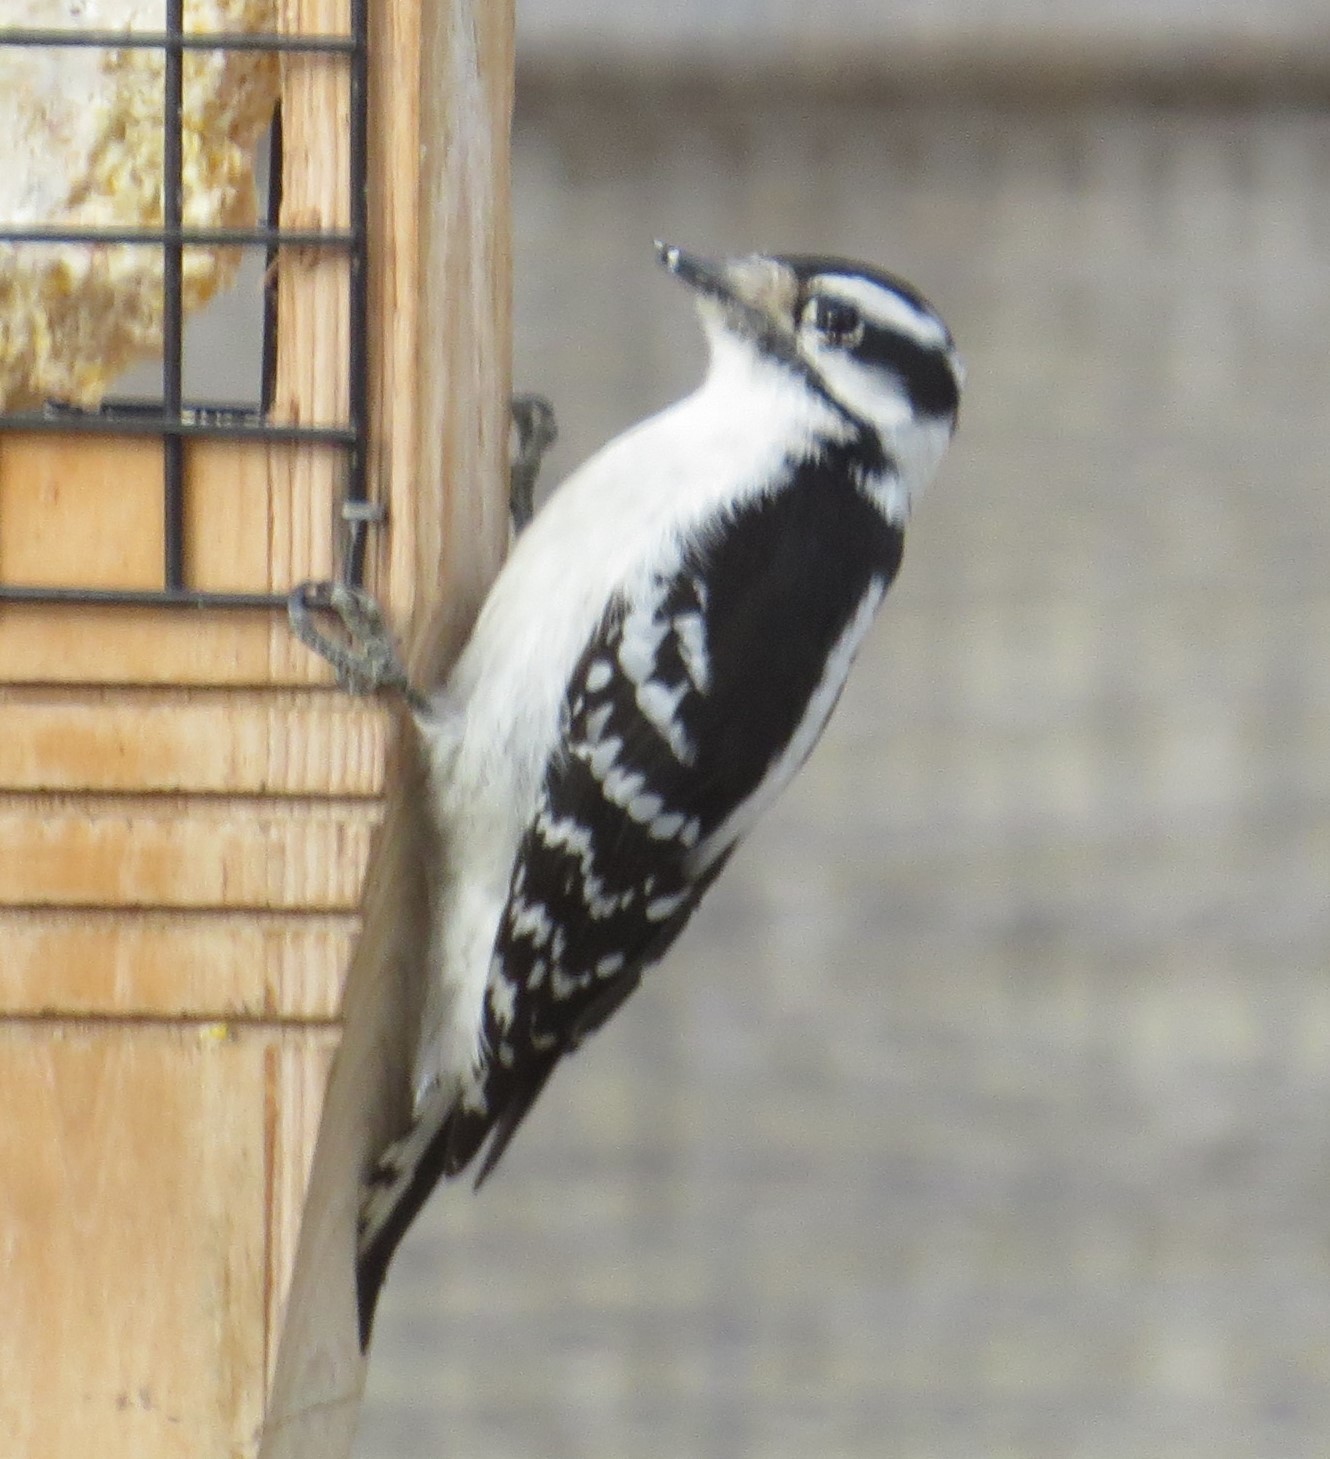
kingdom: Animalia
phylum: Chordata
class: Aves
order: Piciformes
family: Picidae
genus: Dryobates
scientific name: Dryobates pubescens
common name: Downy woodpecker
